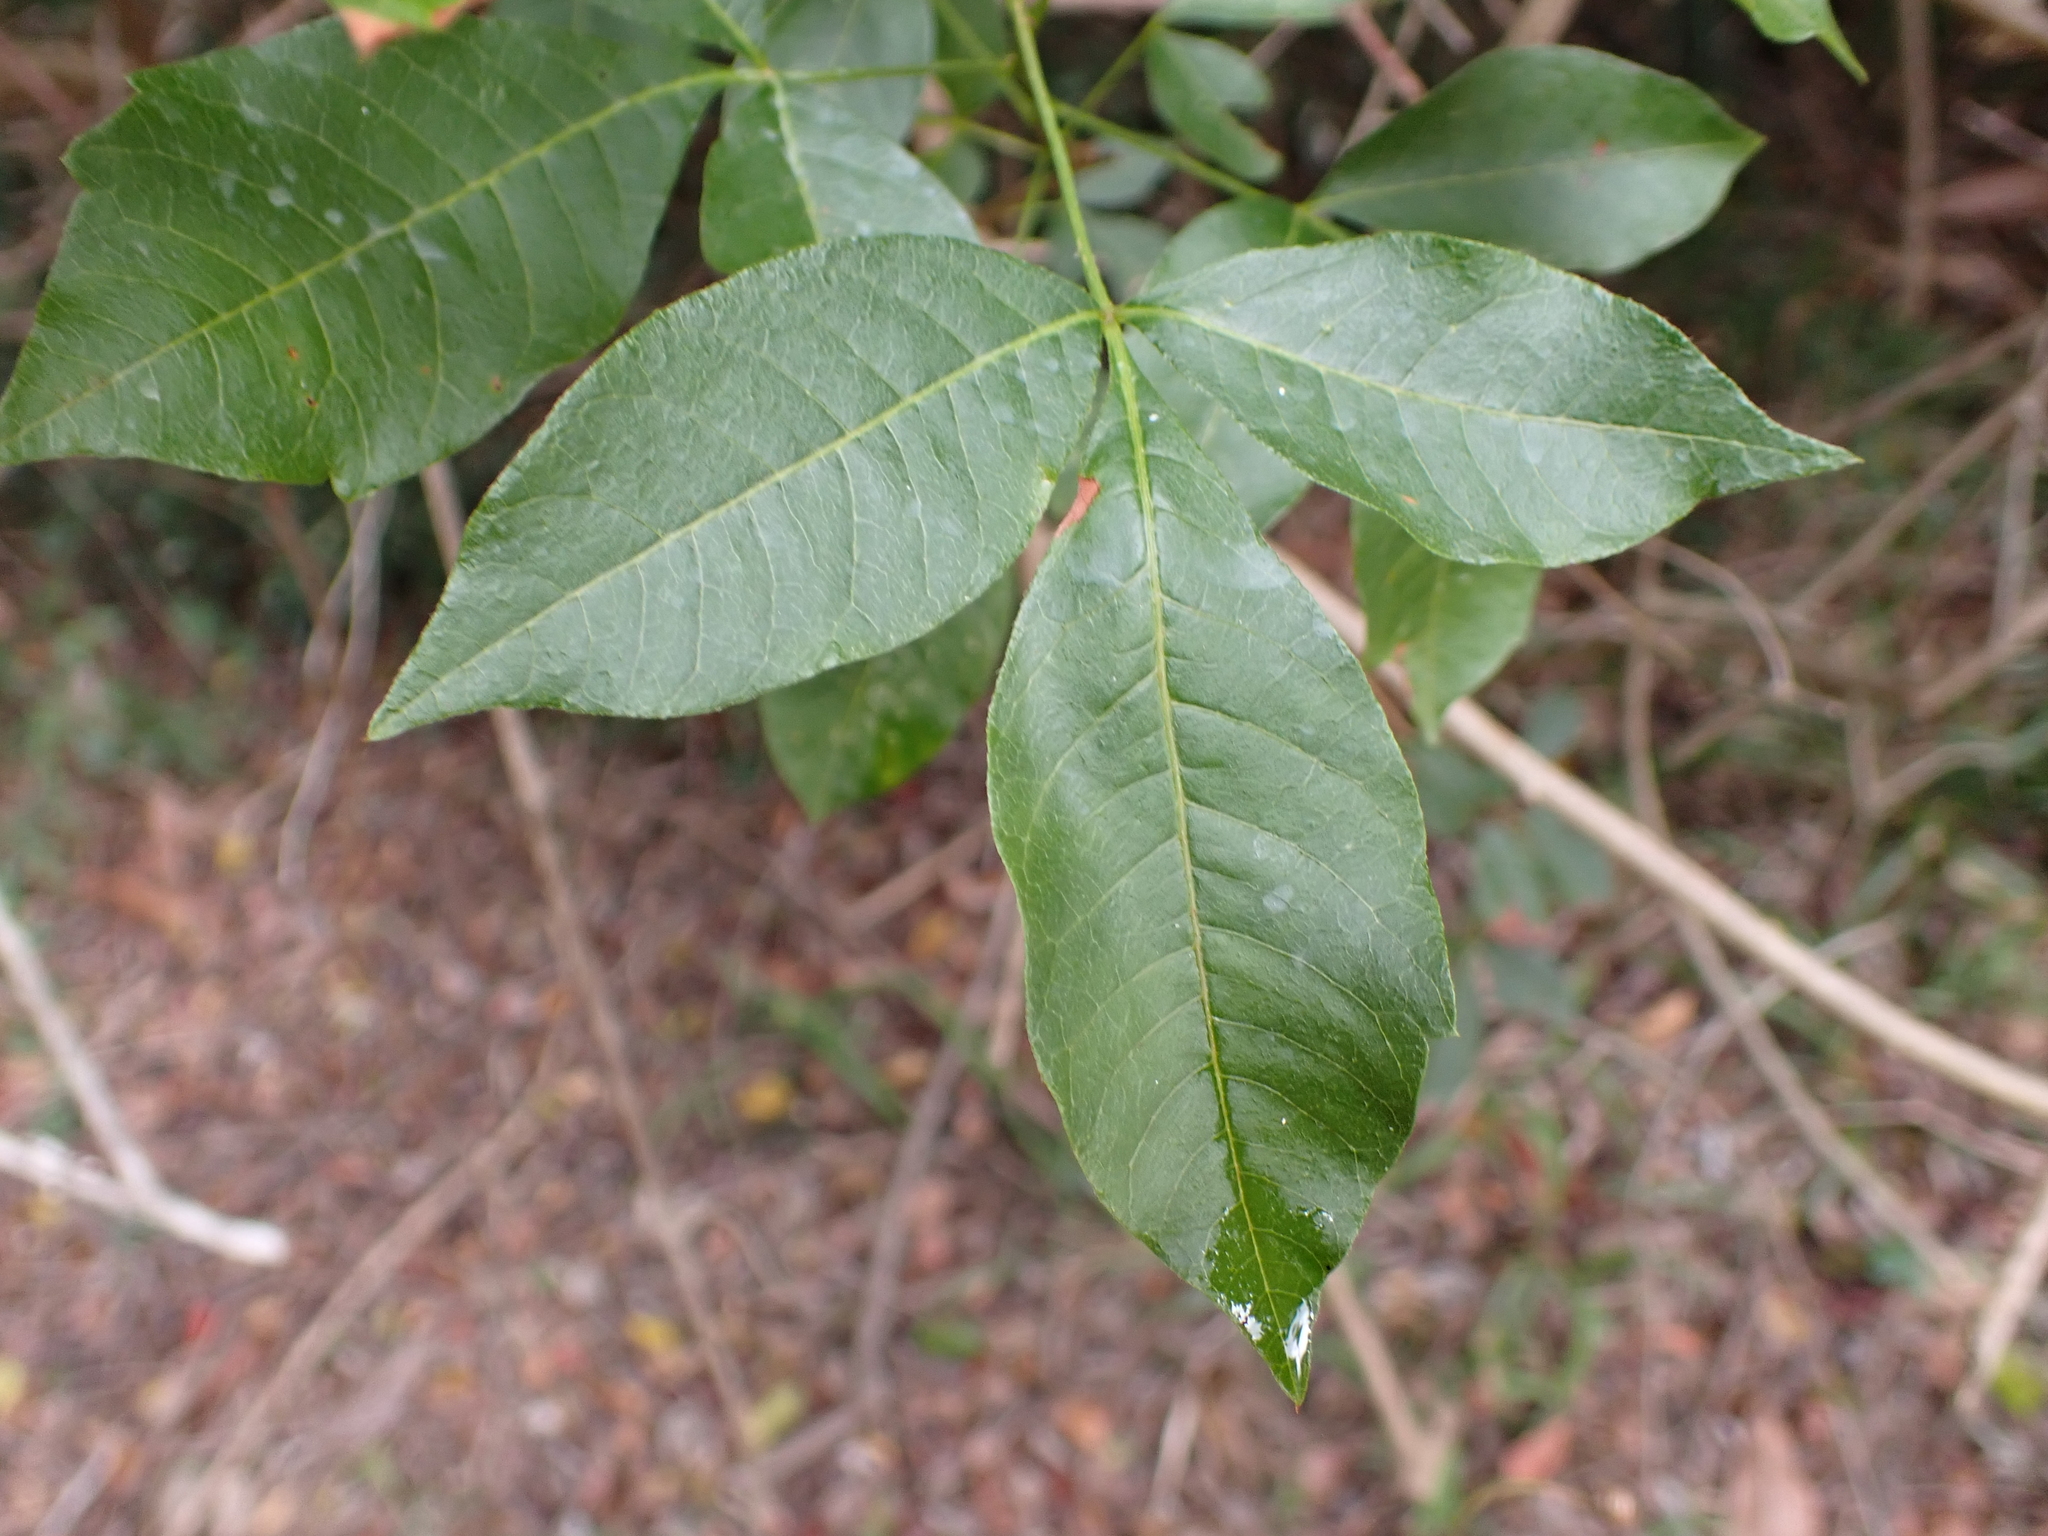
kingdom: Plantae
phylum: Tracheophyta
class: Magnoliopsida
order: Sapindales
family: Anacardiaceae
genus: Searsia
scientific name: Searsia chirindensis
